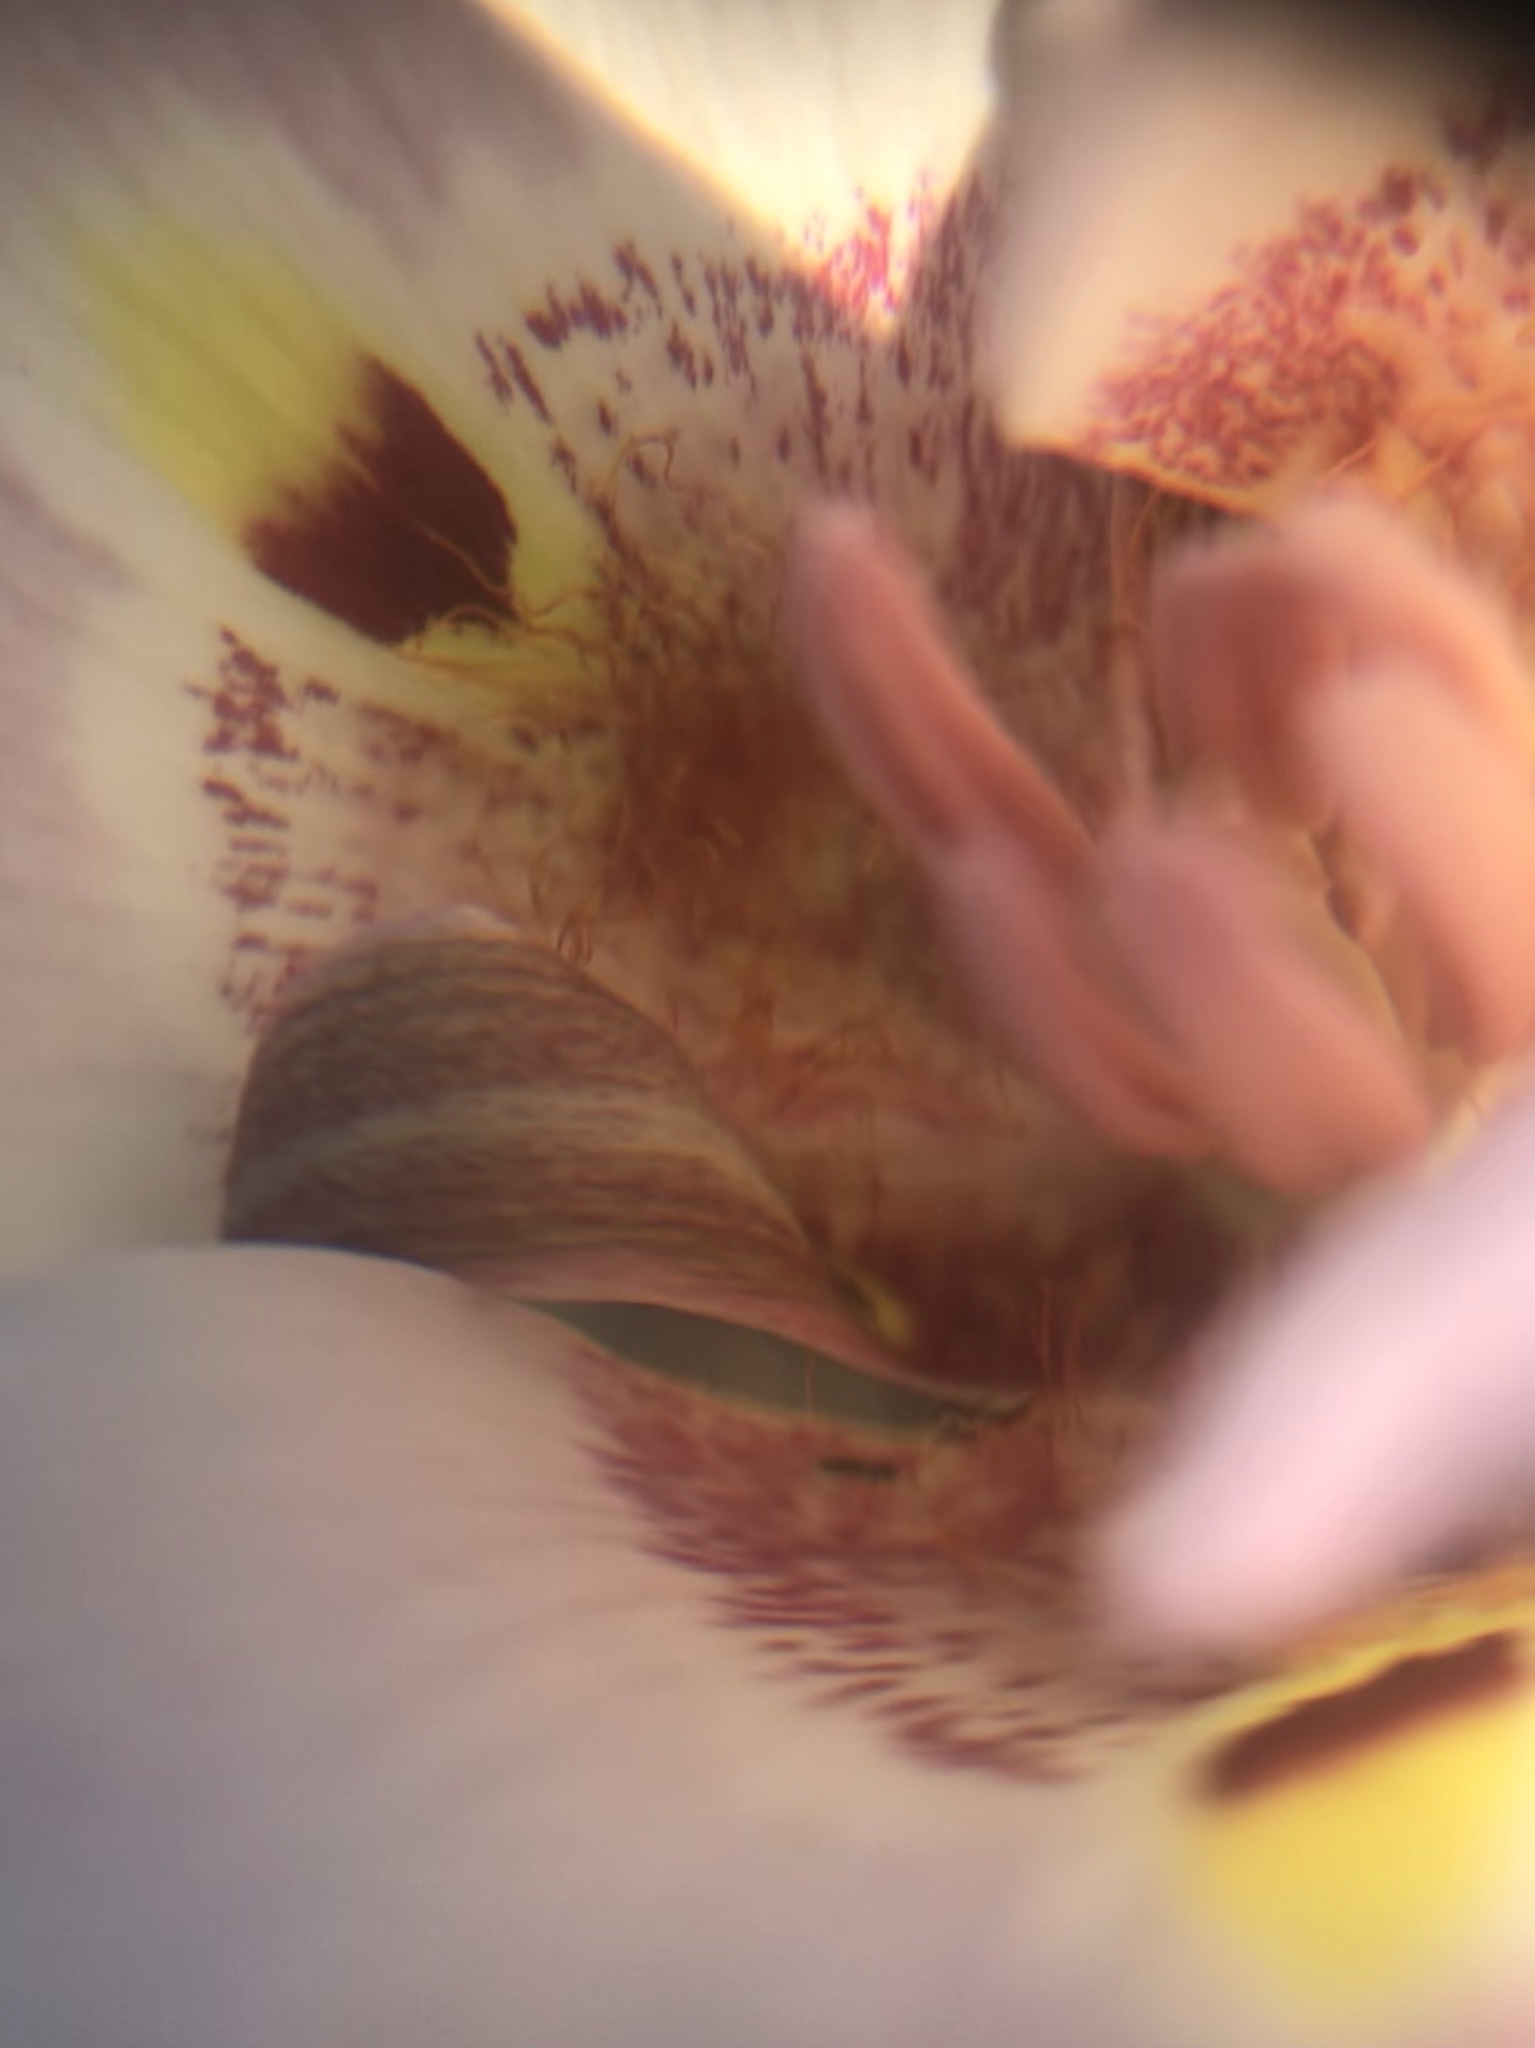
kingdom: Plantae
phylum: Tracheophyta
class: Liliopsida
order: Liliales
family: Liliaceae
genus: Calochortus
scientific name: Calochortus argillosus
